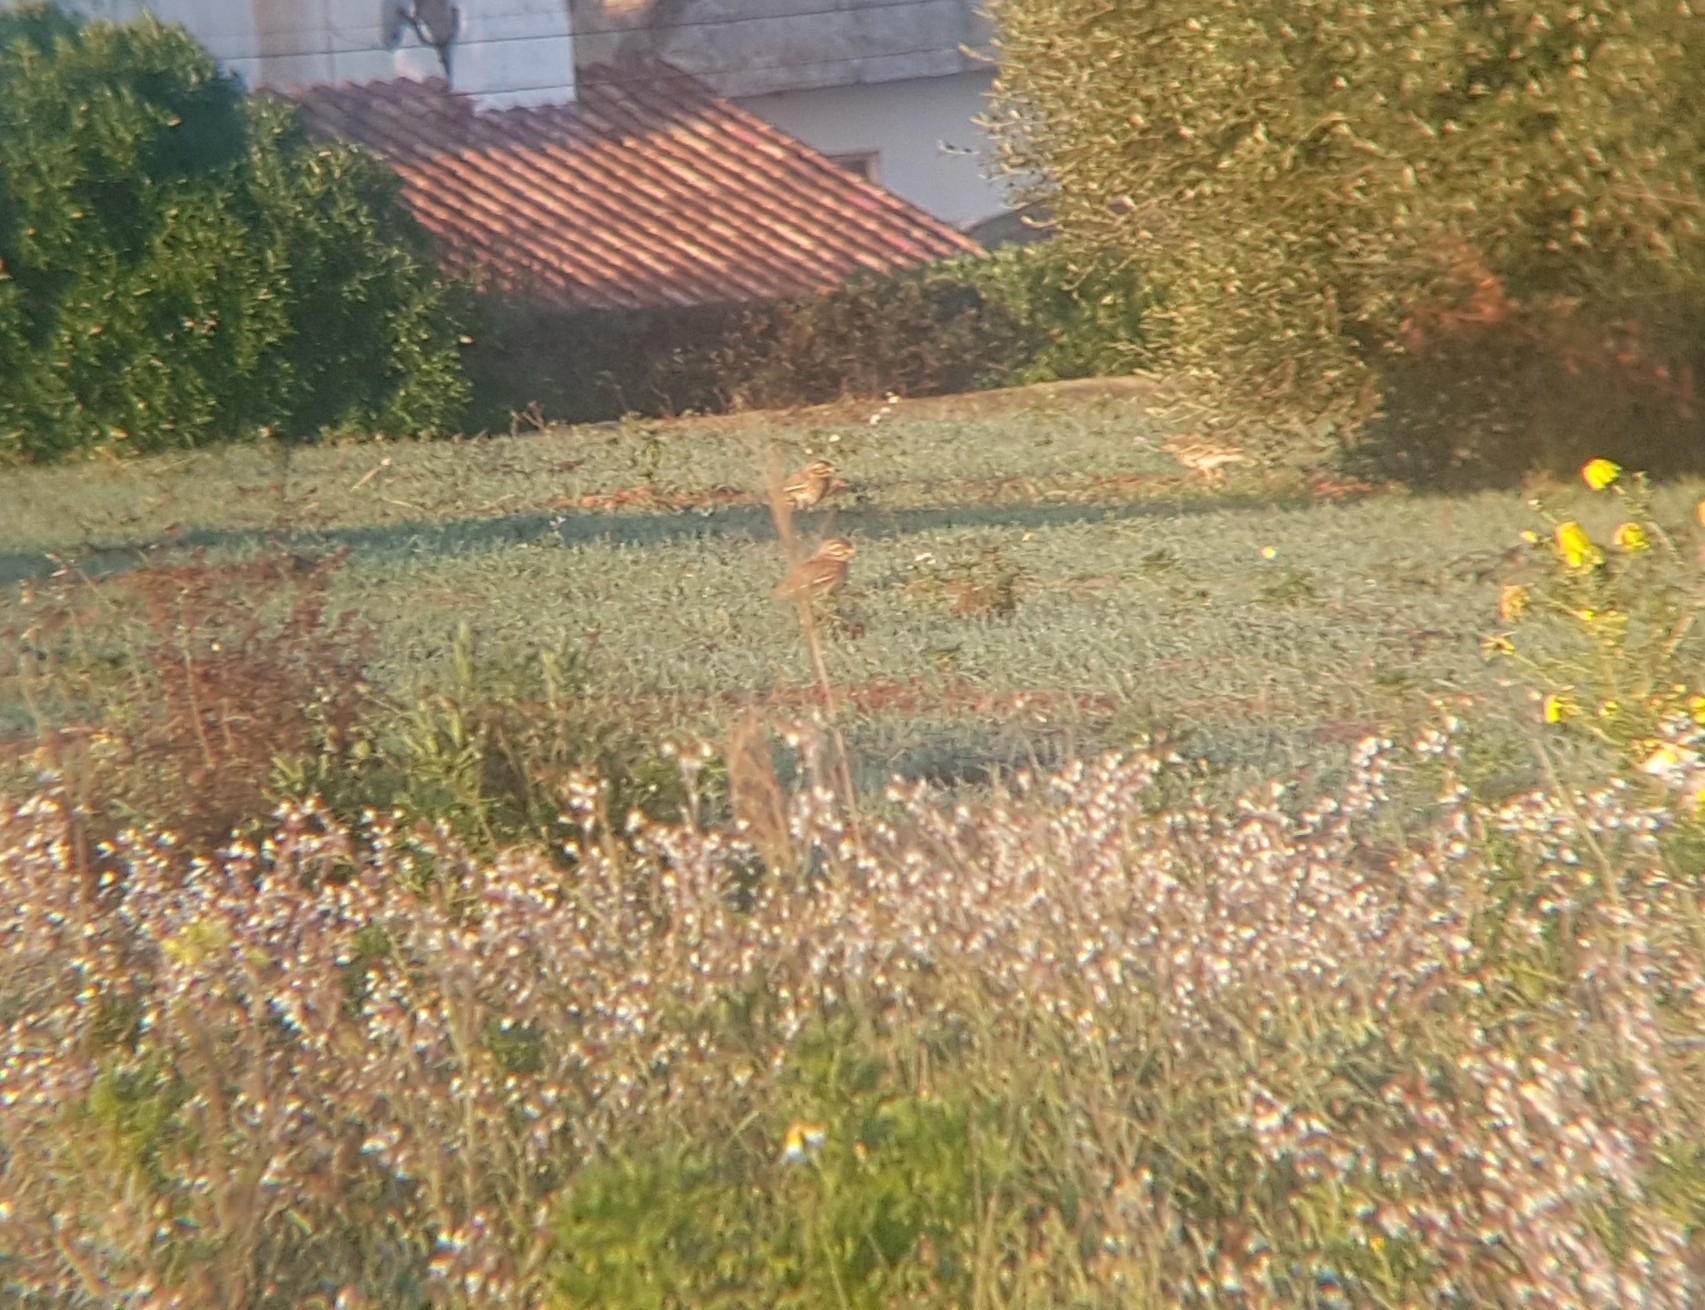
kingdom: Animalia
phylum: Chordata
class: Aves
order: Charadriiformes
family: Burhinidae
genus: Burhinus
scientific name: Burhinus oedicnemus
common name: Eurasian stone-curlew
